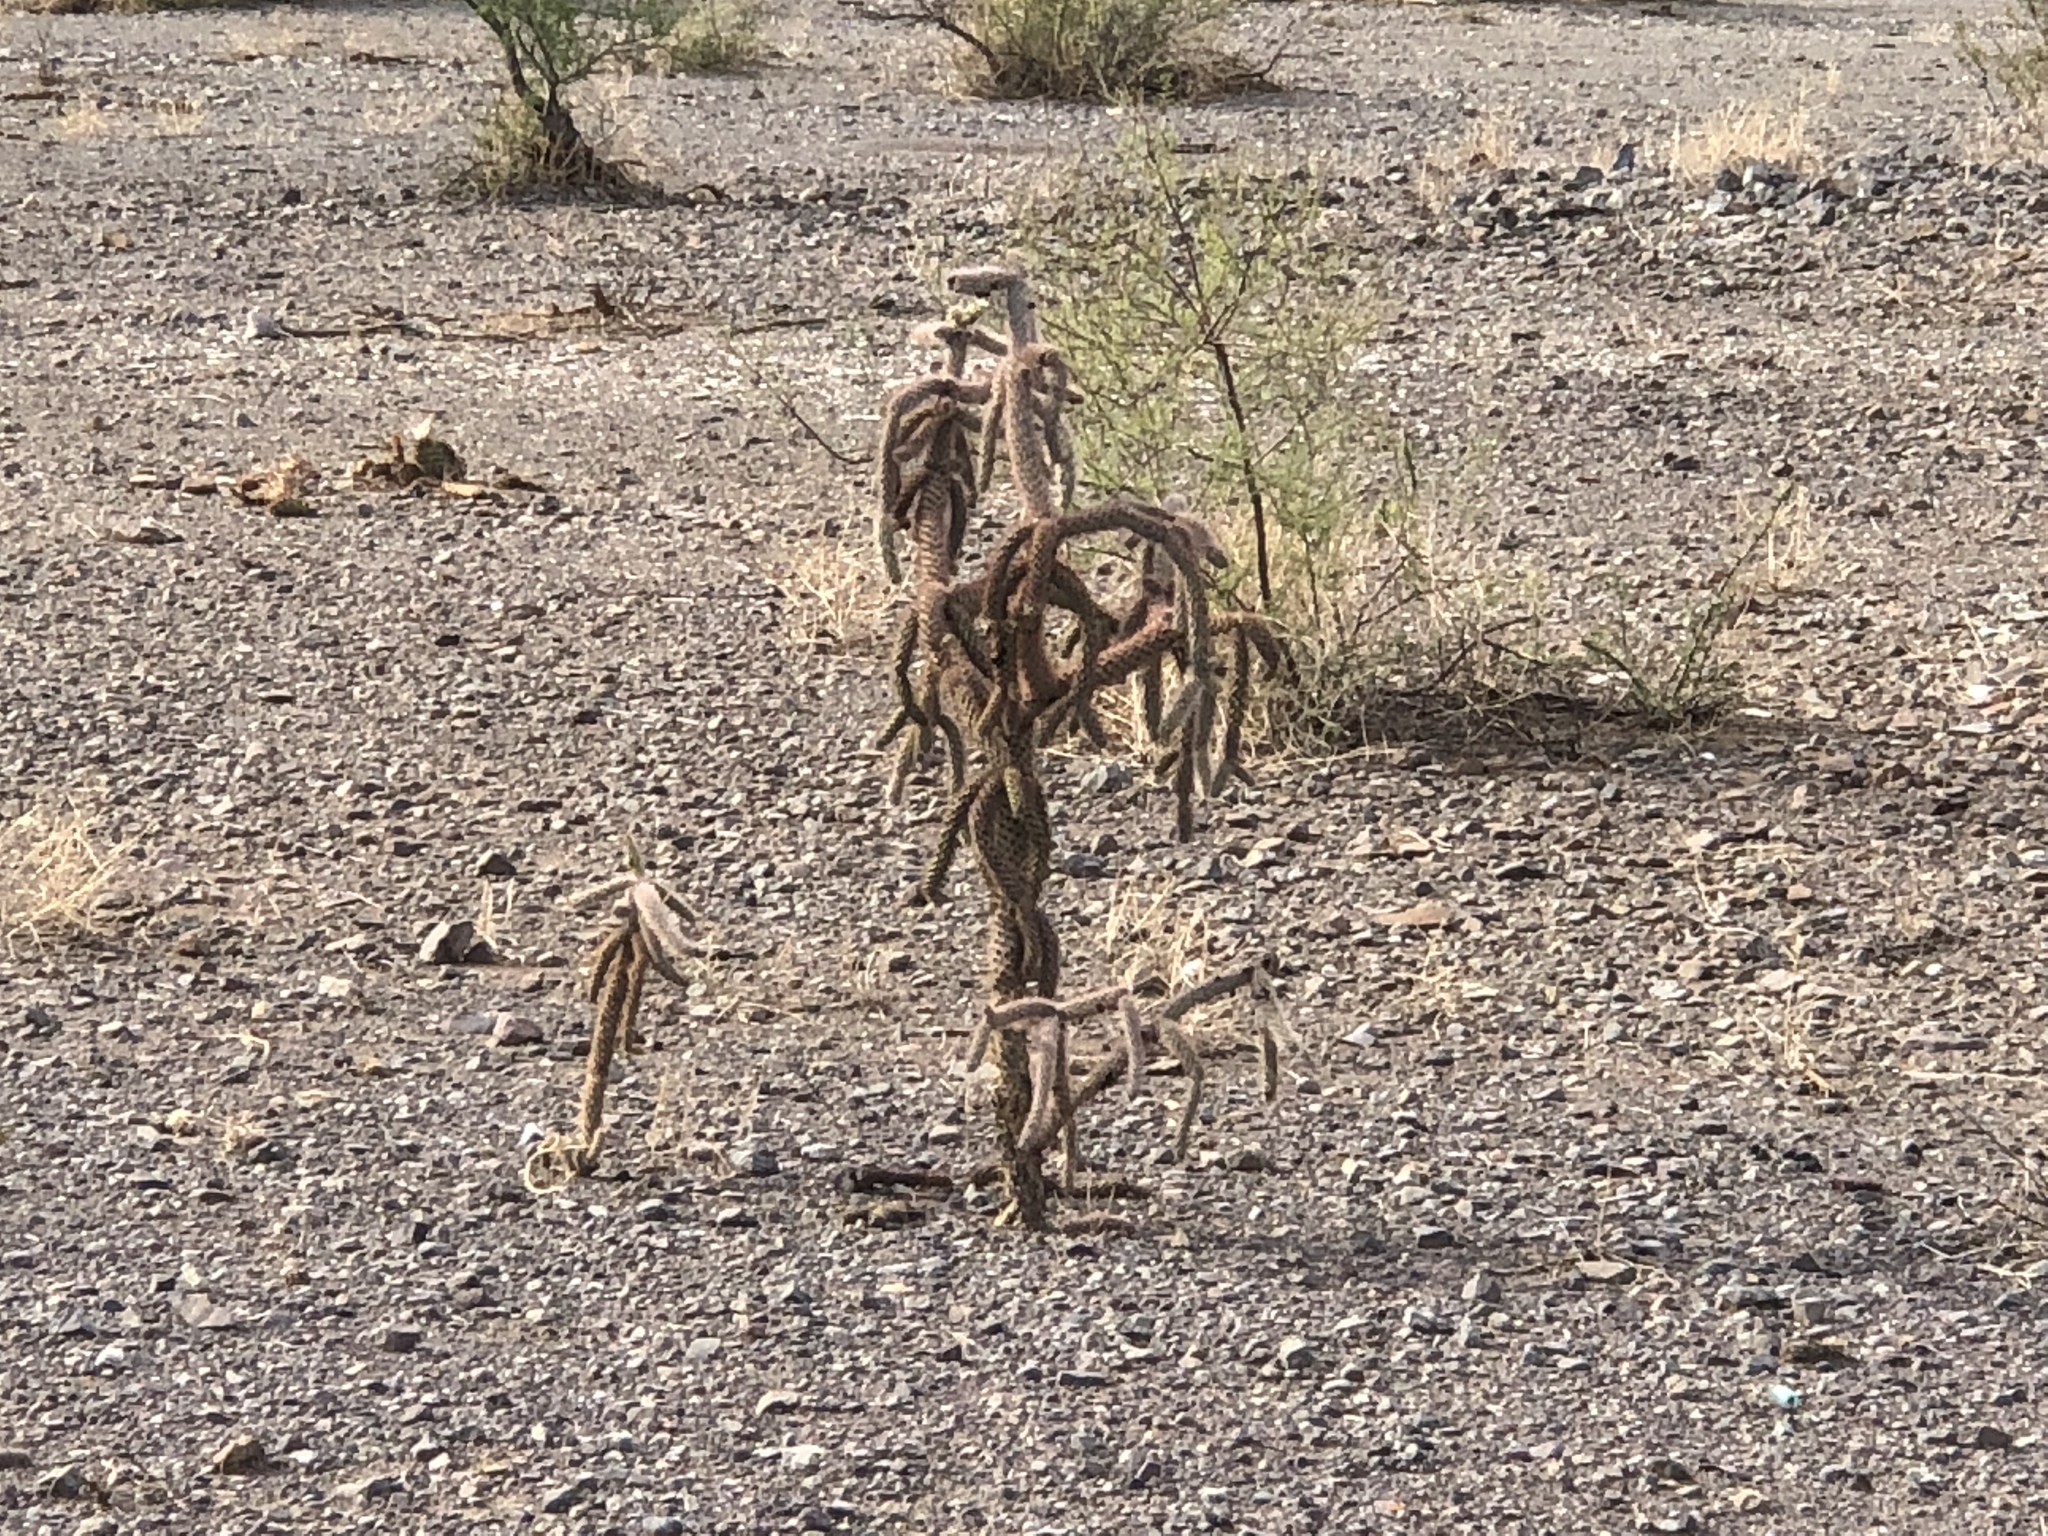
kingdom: Plantae
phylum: Tracheophyta
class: Magnoliopsida
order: Caryophyllales
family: Cactaceae
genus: Cylindropuntia
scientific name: Cylindropuntia imbricata
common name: Candelabrum cactus
